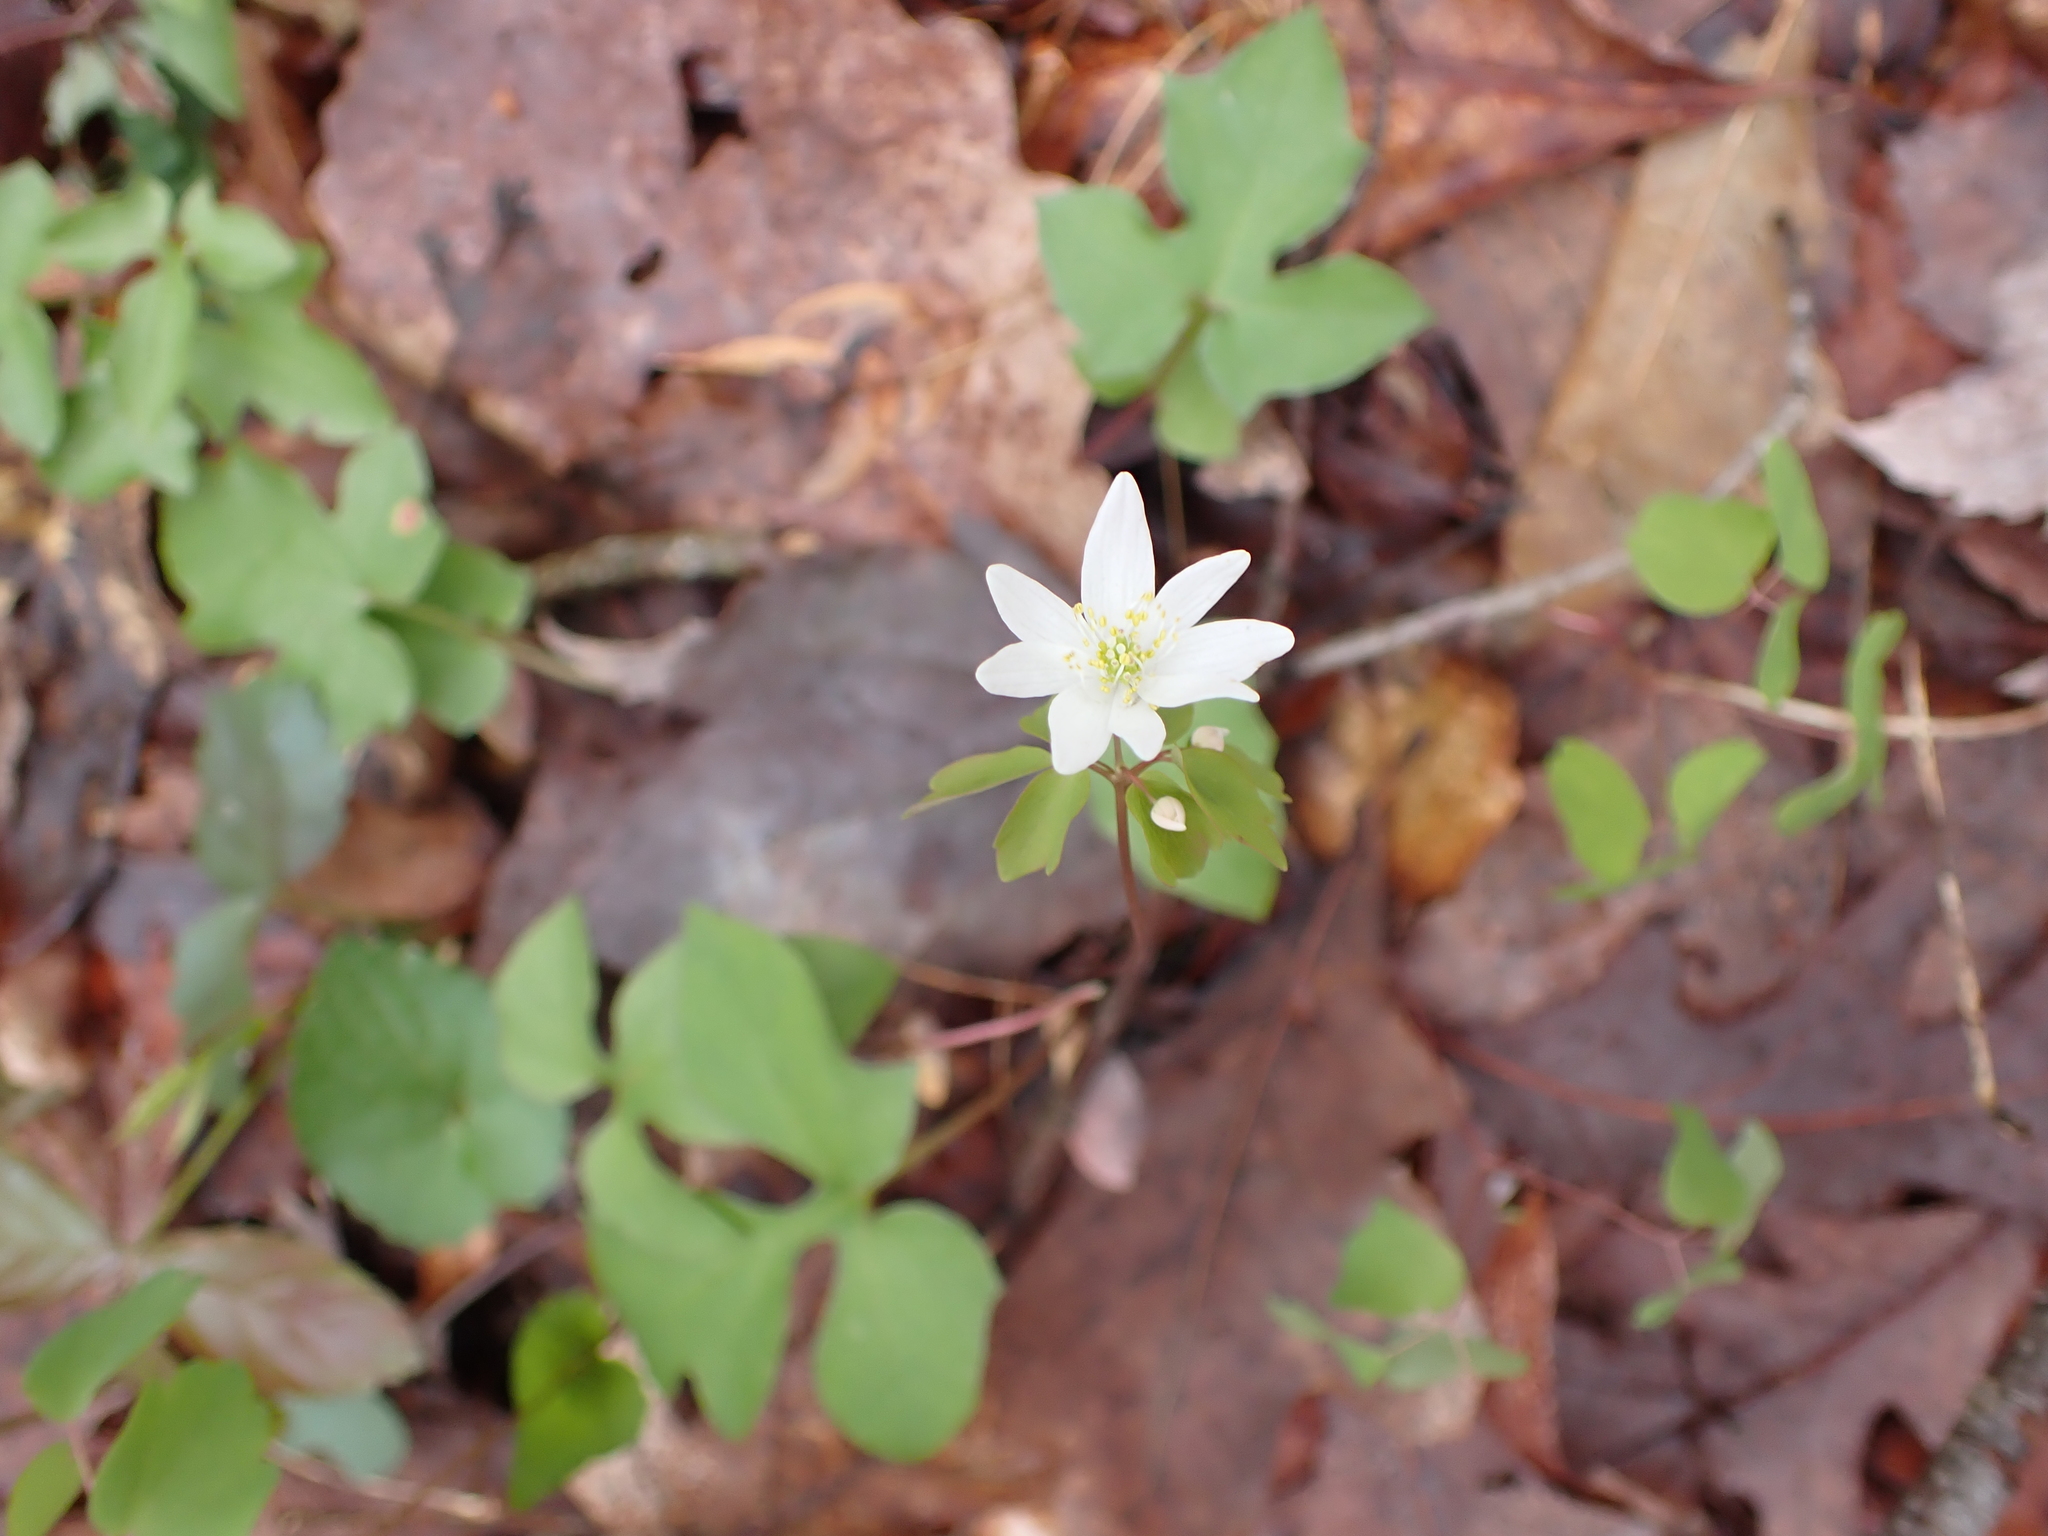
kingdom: Plantae
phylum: Tracheophyta
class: Magnoliopsida
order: Ranunculales
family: Ranunculaceae
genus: Thalictrum
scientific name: Thalictrum thalictroides
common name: Rue-anemone
